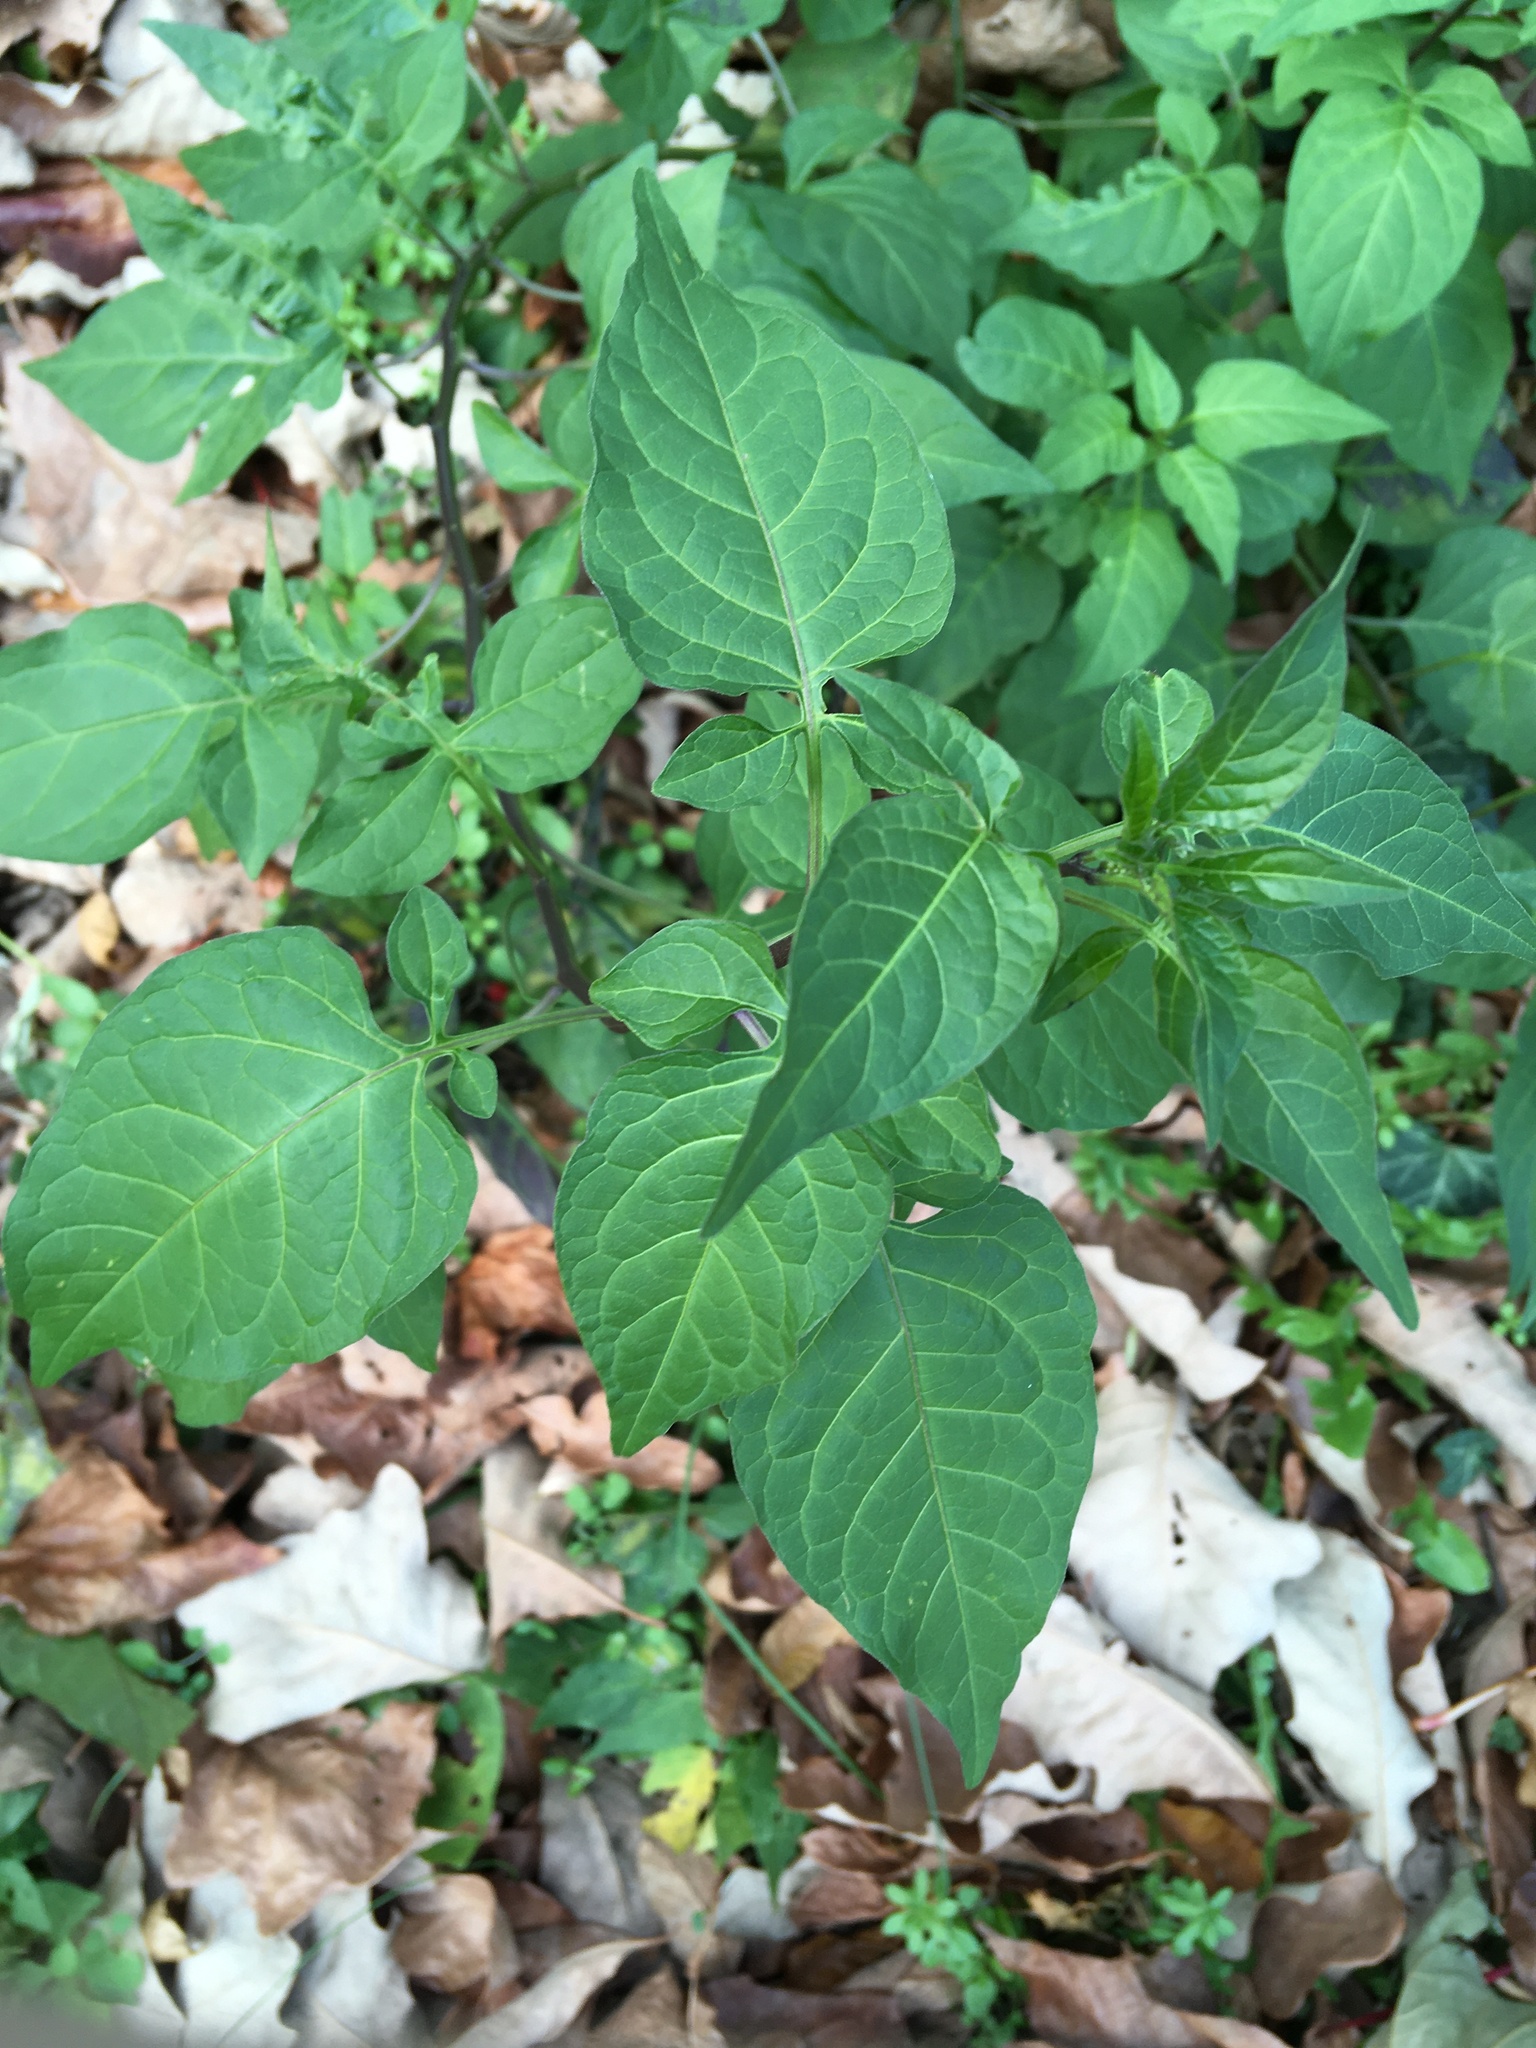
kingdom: Plantae
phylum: Tracheophyta
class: Magnoliopsida
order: Solanales
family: Solanaceae
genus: Solanum
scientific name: Solanum dulcamara
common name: Climbing nightshade
